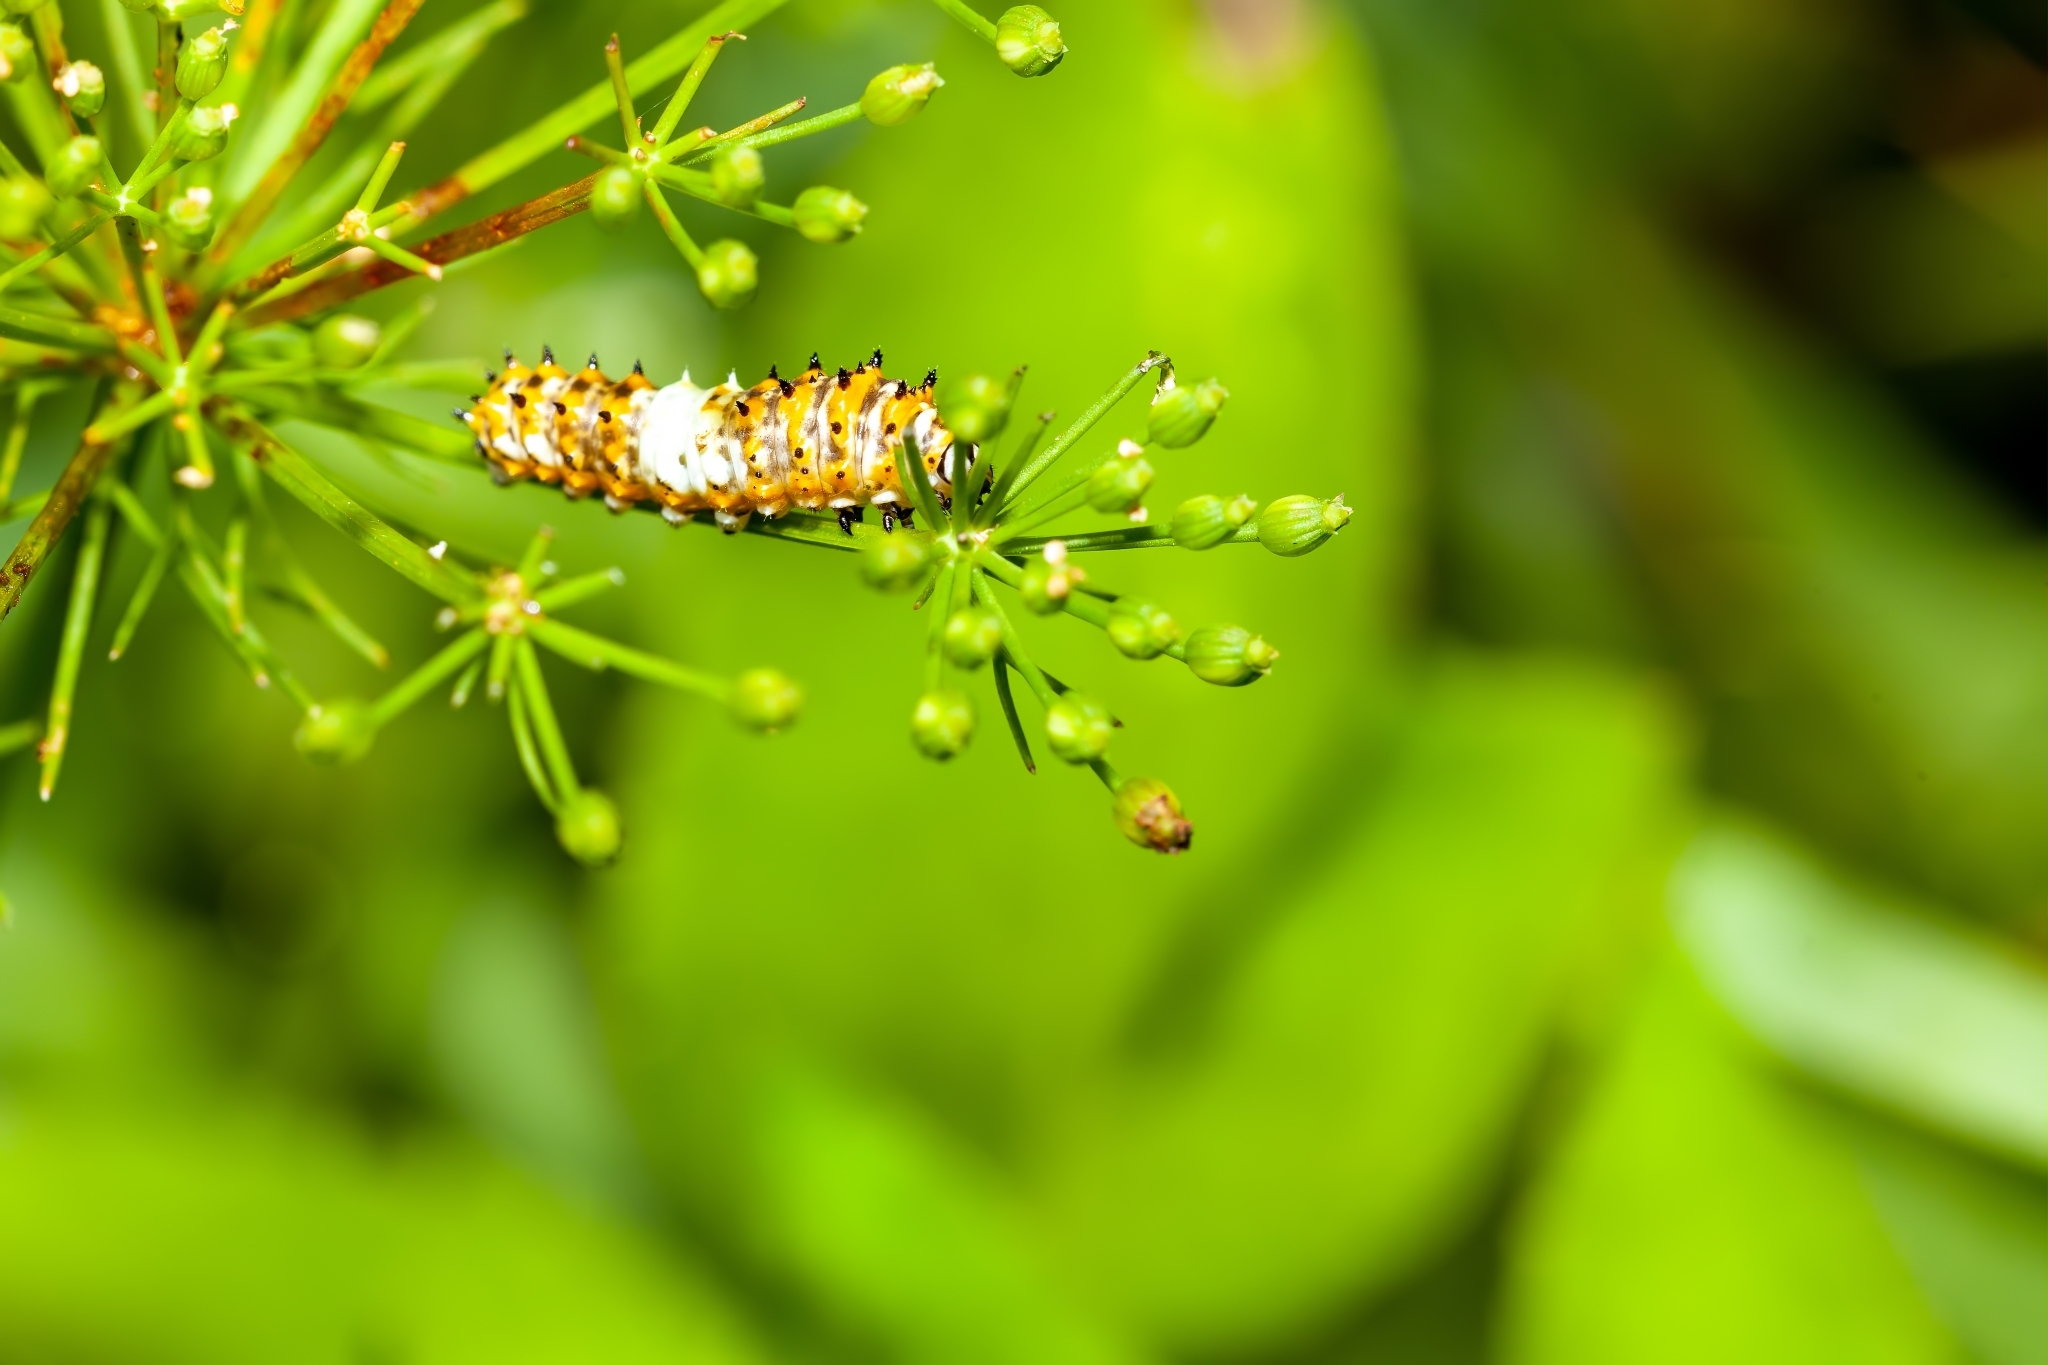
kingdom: Animalia
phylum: Arthropoda
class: Insecta
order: Lepidoptera
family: Papilionidae
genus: Papilio
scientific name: Papilio polyxenes
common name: Black swallowtail
